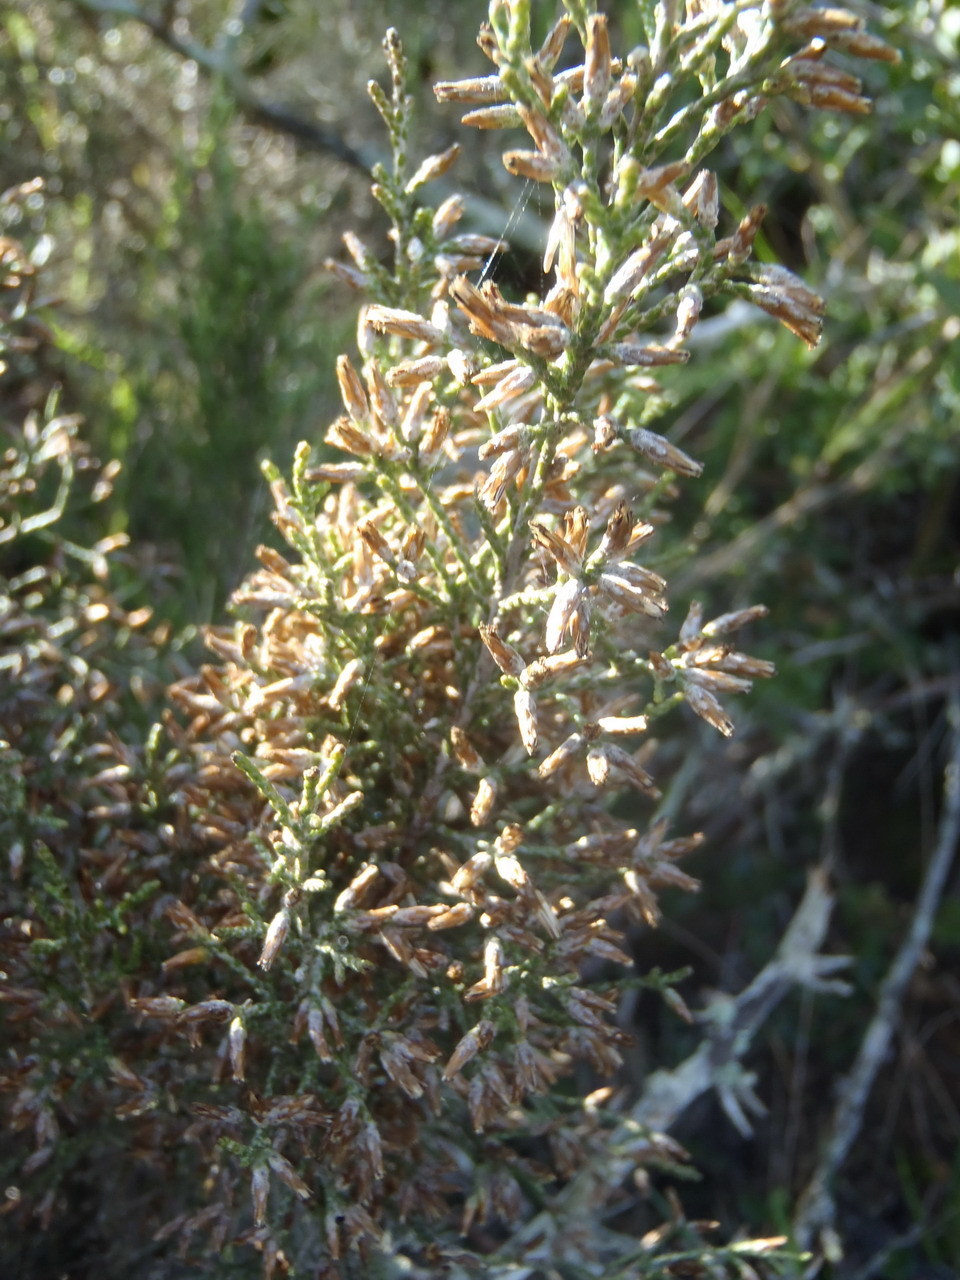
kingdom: Plantae
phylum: Tracheophyta
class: Magnoliopsida
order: Asterales
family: Asteraceae
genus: Dicerothamnus
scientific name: Dicerothamnus rhinocerotis
